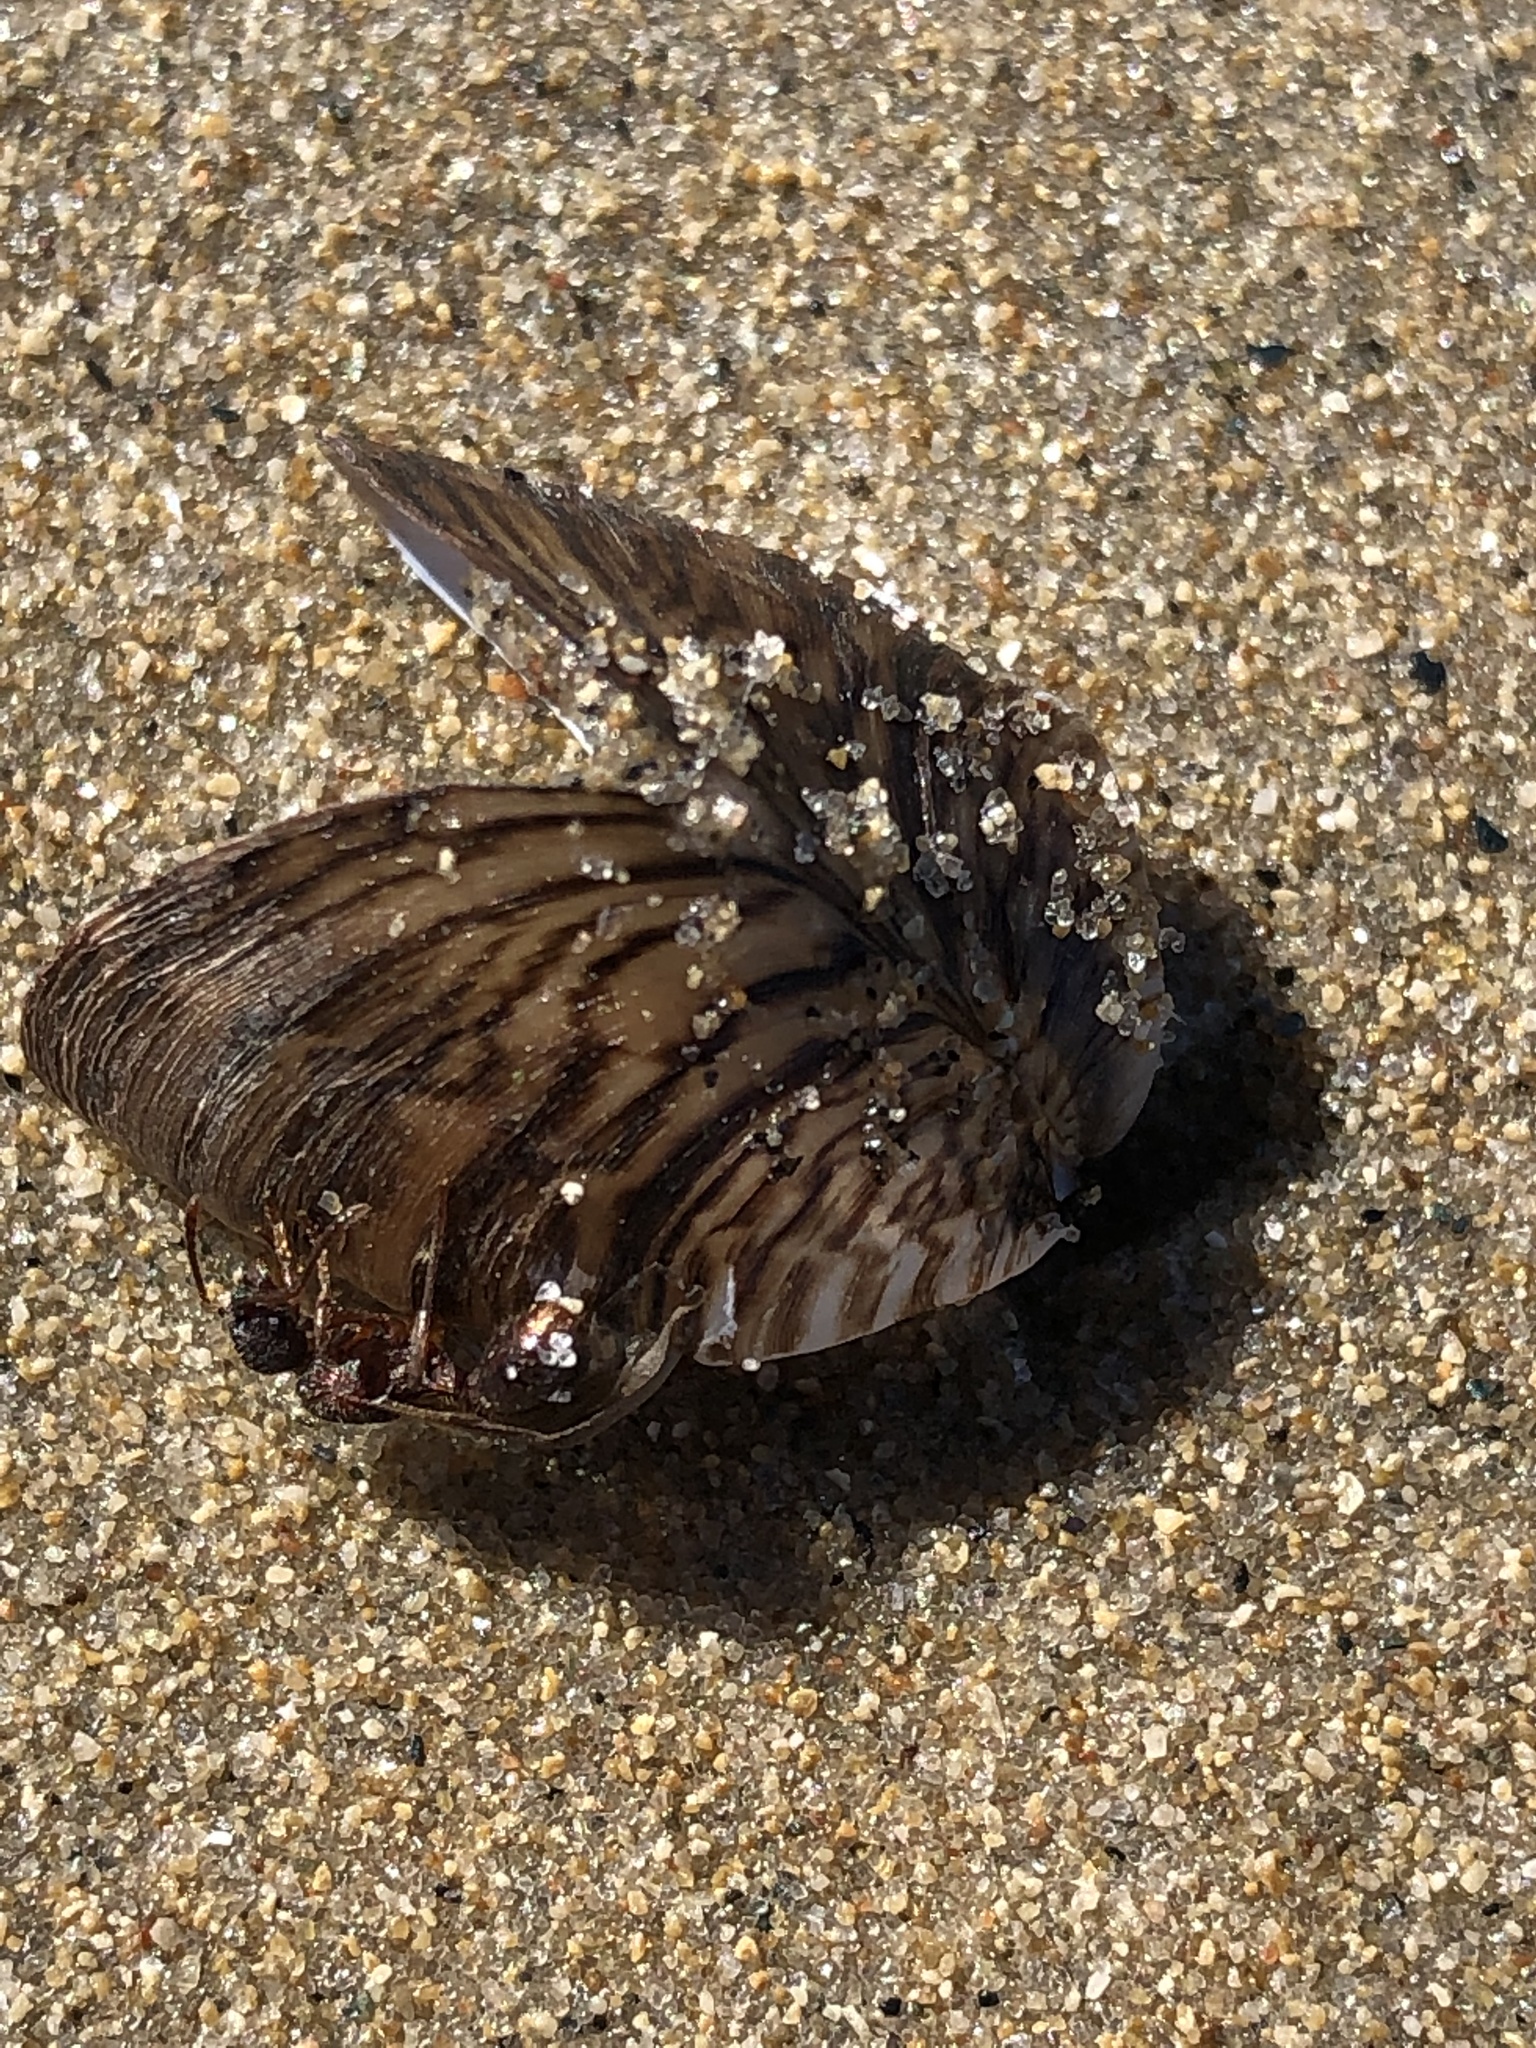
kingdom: Animalia
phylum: Mollusca
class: Bivalvia
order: Myida
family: Dreissenidae
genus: Dreissena
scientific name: Dreissena polymorpha
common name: Zebra mussel
